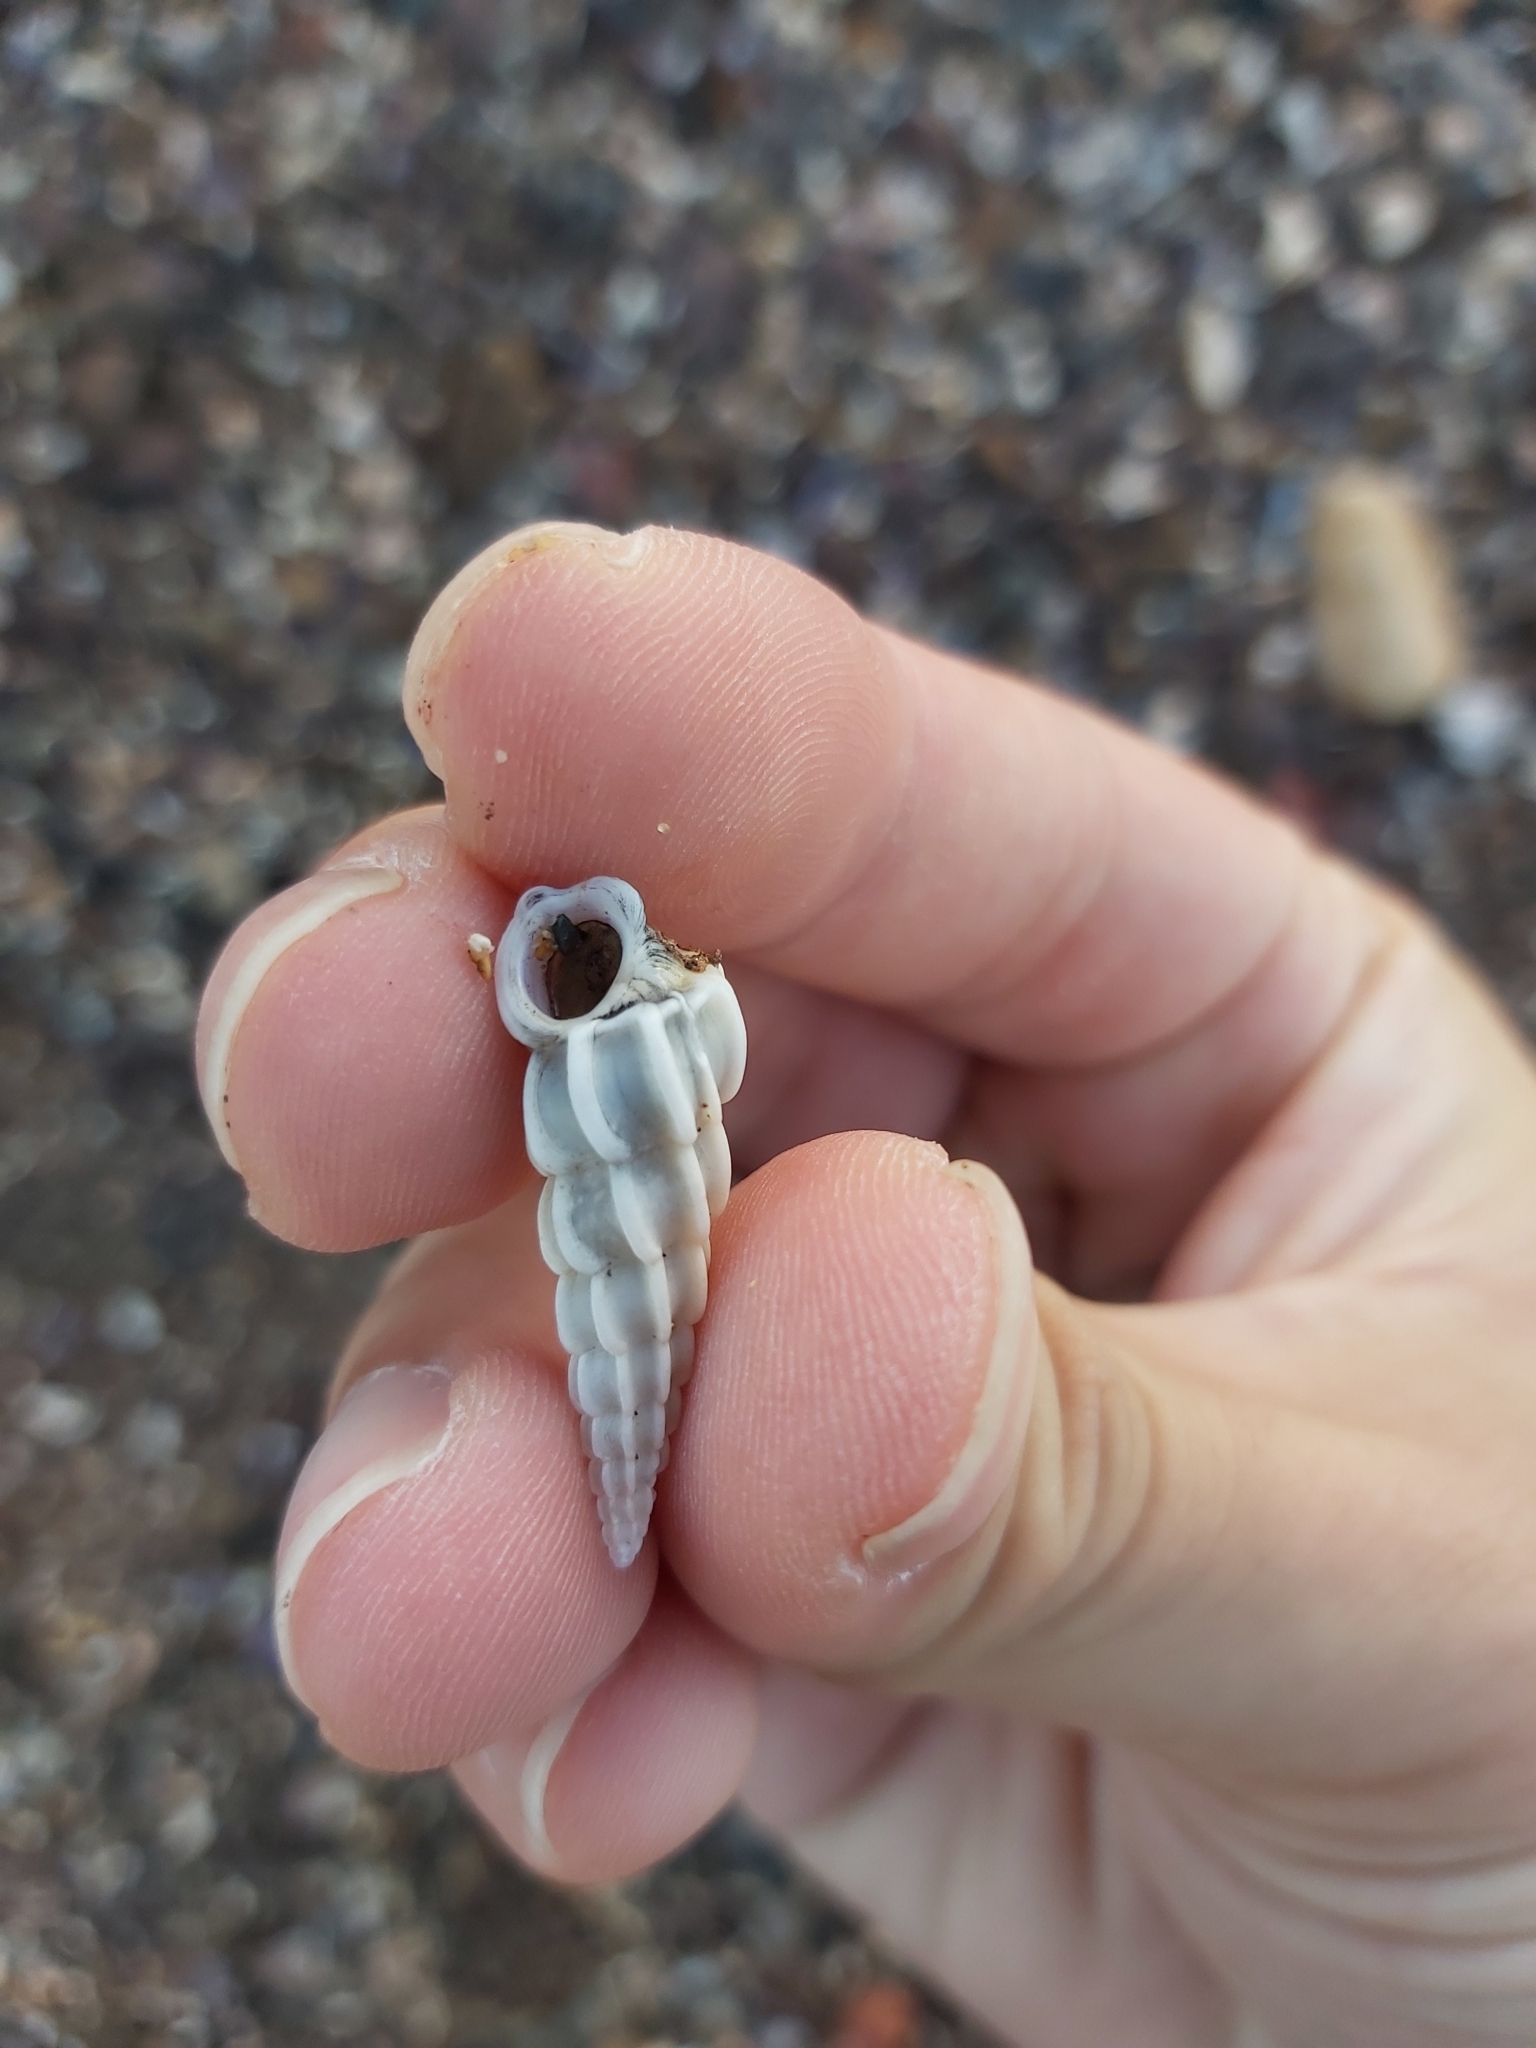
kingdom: Animalia
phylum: Mollusca
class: Gastropoda
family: Epitoniidae
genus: Opalia
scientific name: Opalia australis
